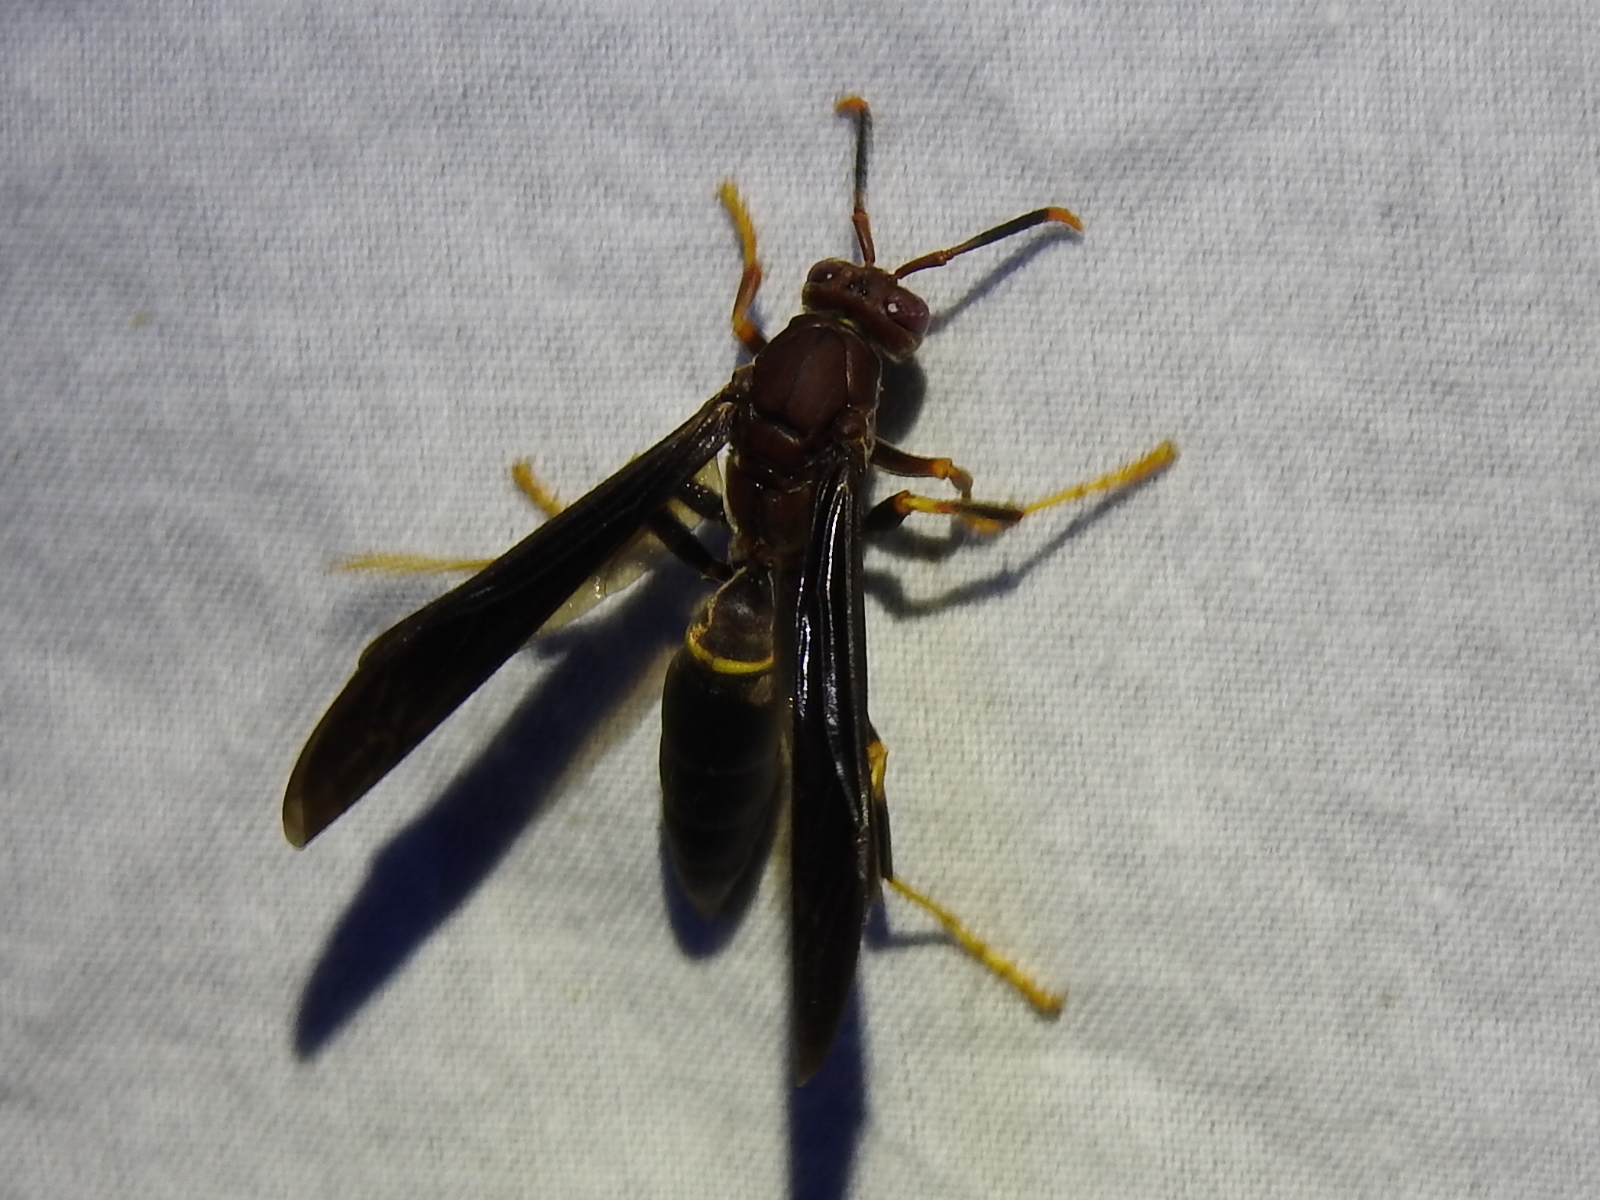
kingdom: Animalia
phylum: Arthropoda
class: Insecta
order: Hymenoptera
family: Eumenidae
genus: Polistes
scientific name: Polistes annularis
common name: Ringed paper wasp
